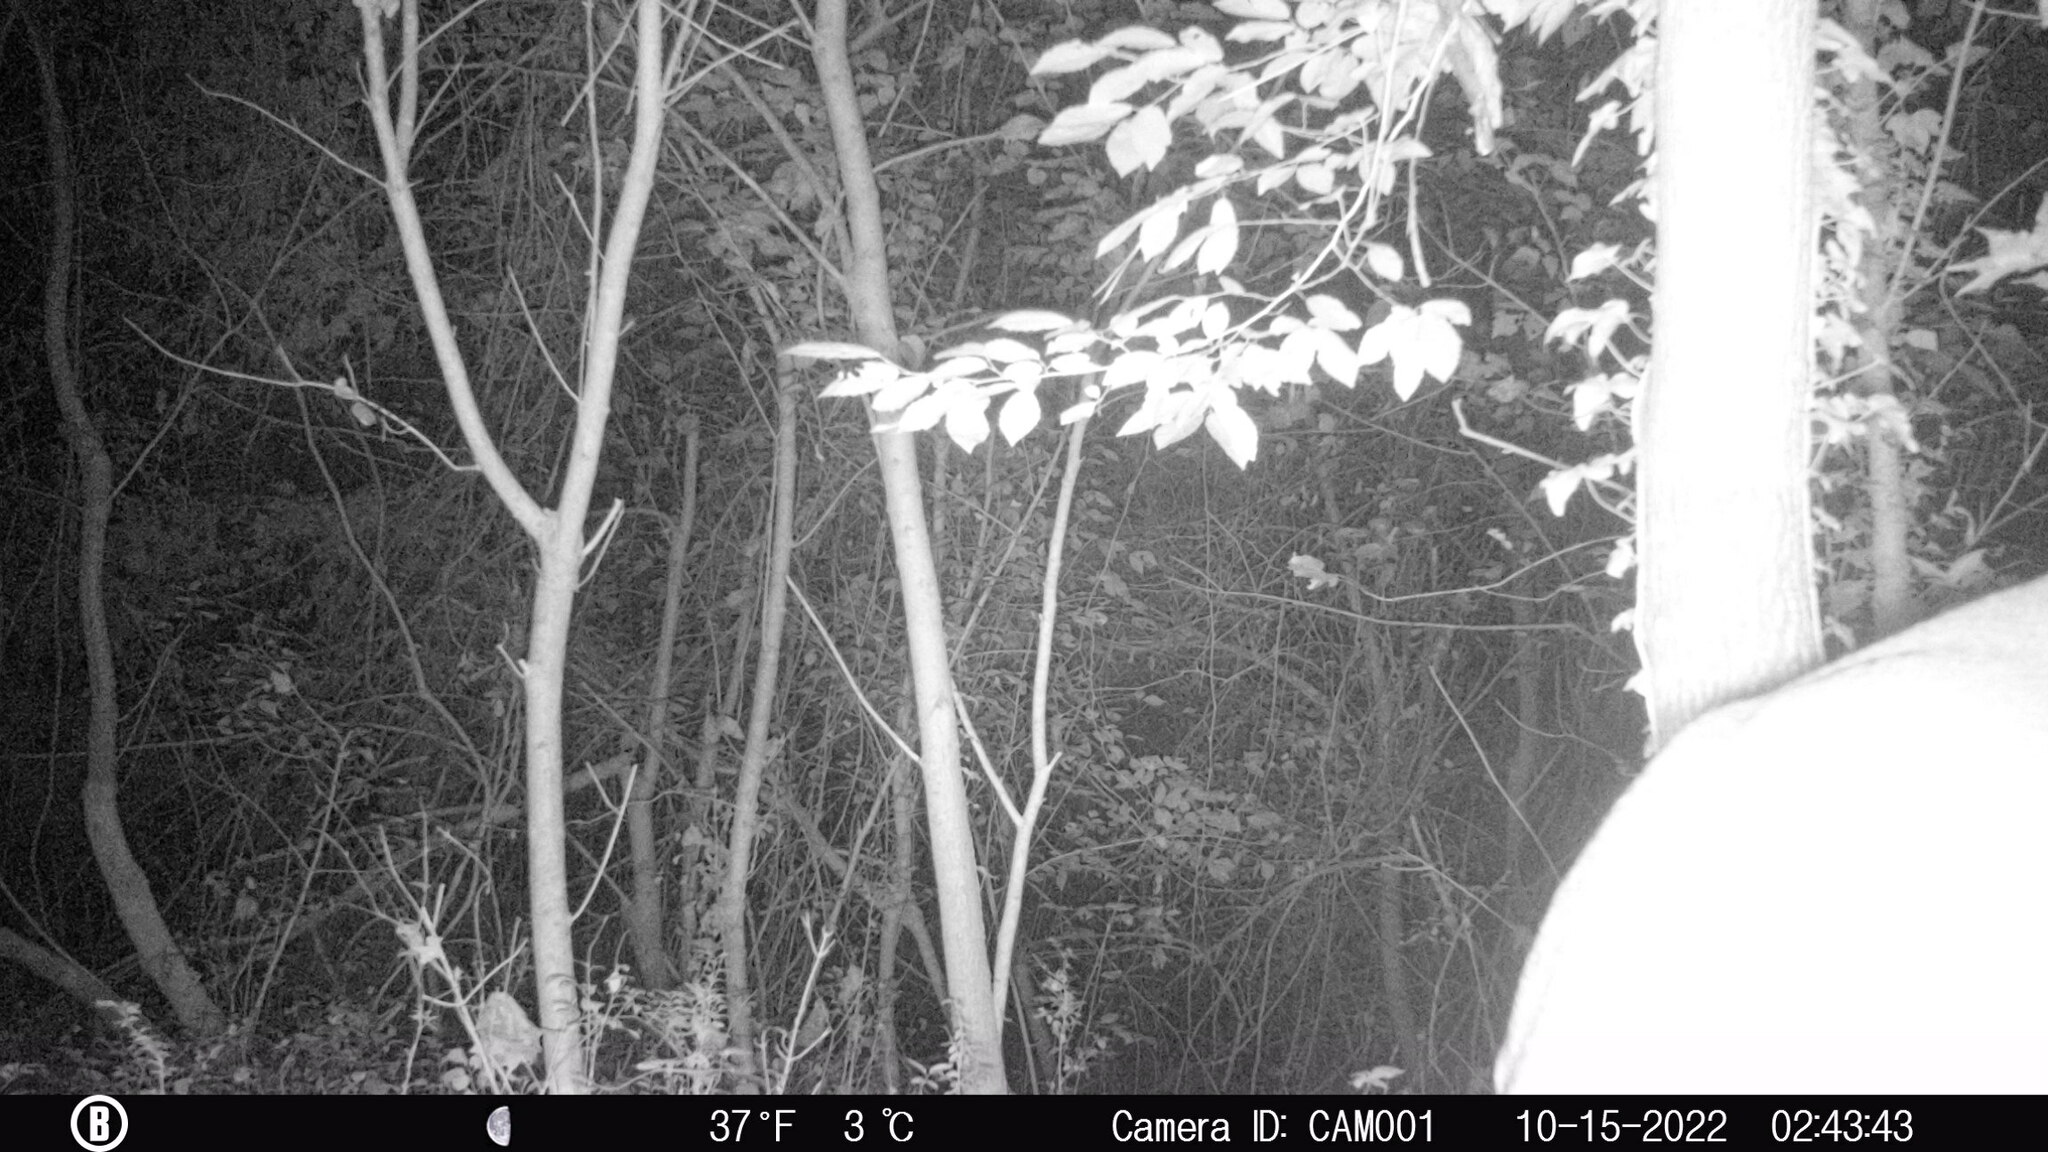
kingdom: Animalia
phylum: Chordata
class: Mammalia
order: Artiodactyla
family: Cervidae
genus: Odocoileus
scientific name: Odocoileus virginianus
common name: White-tailed deer
